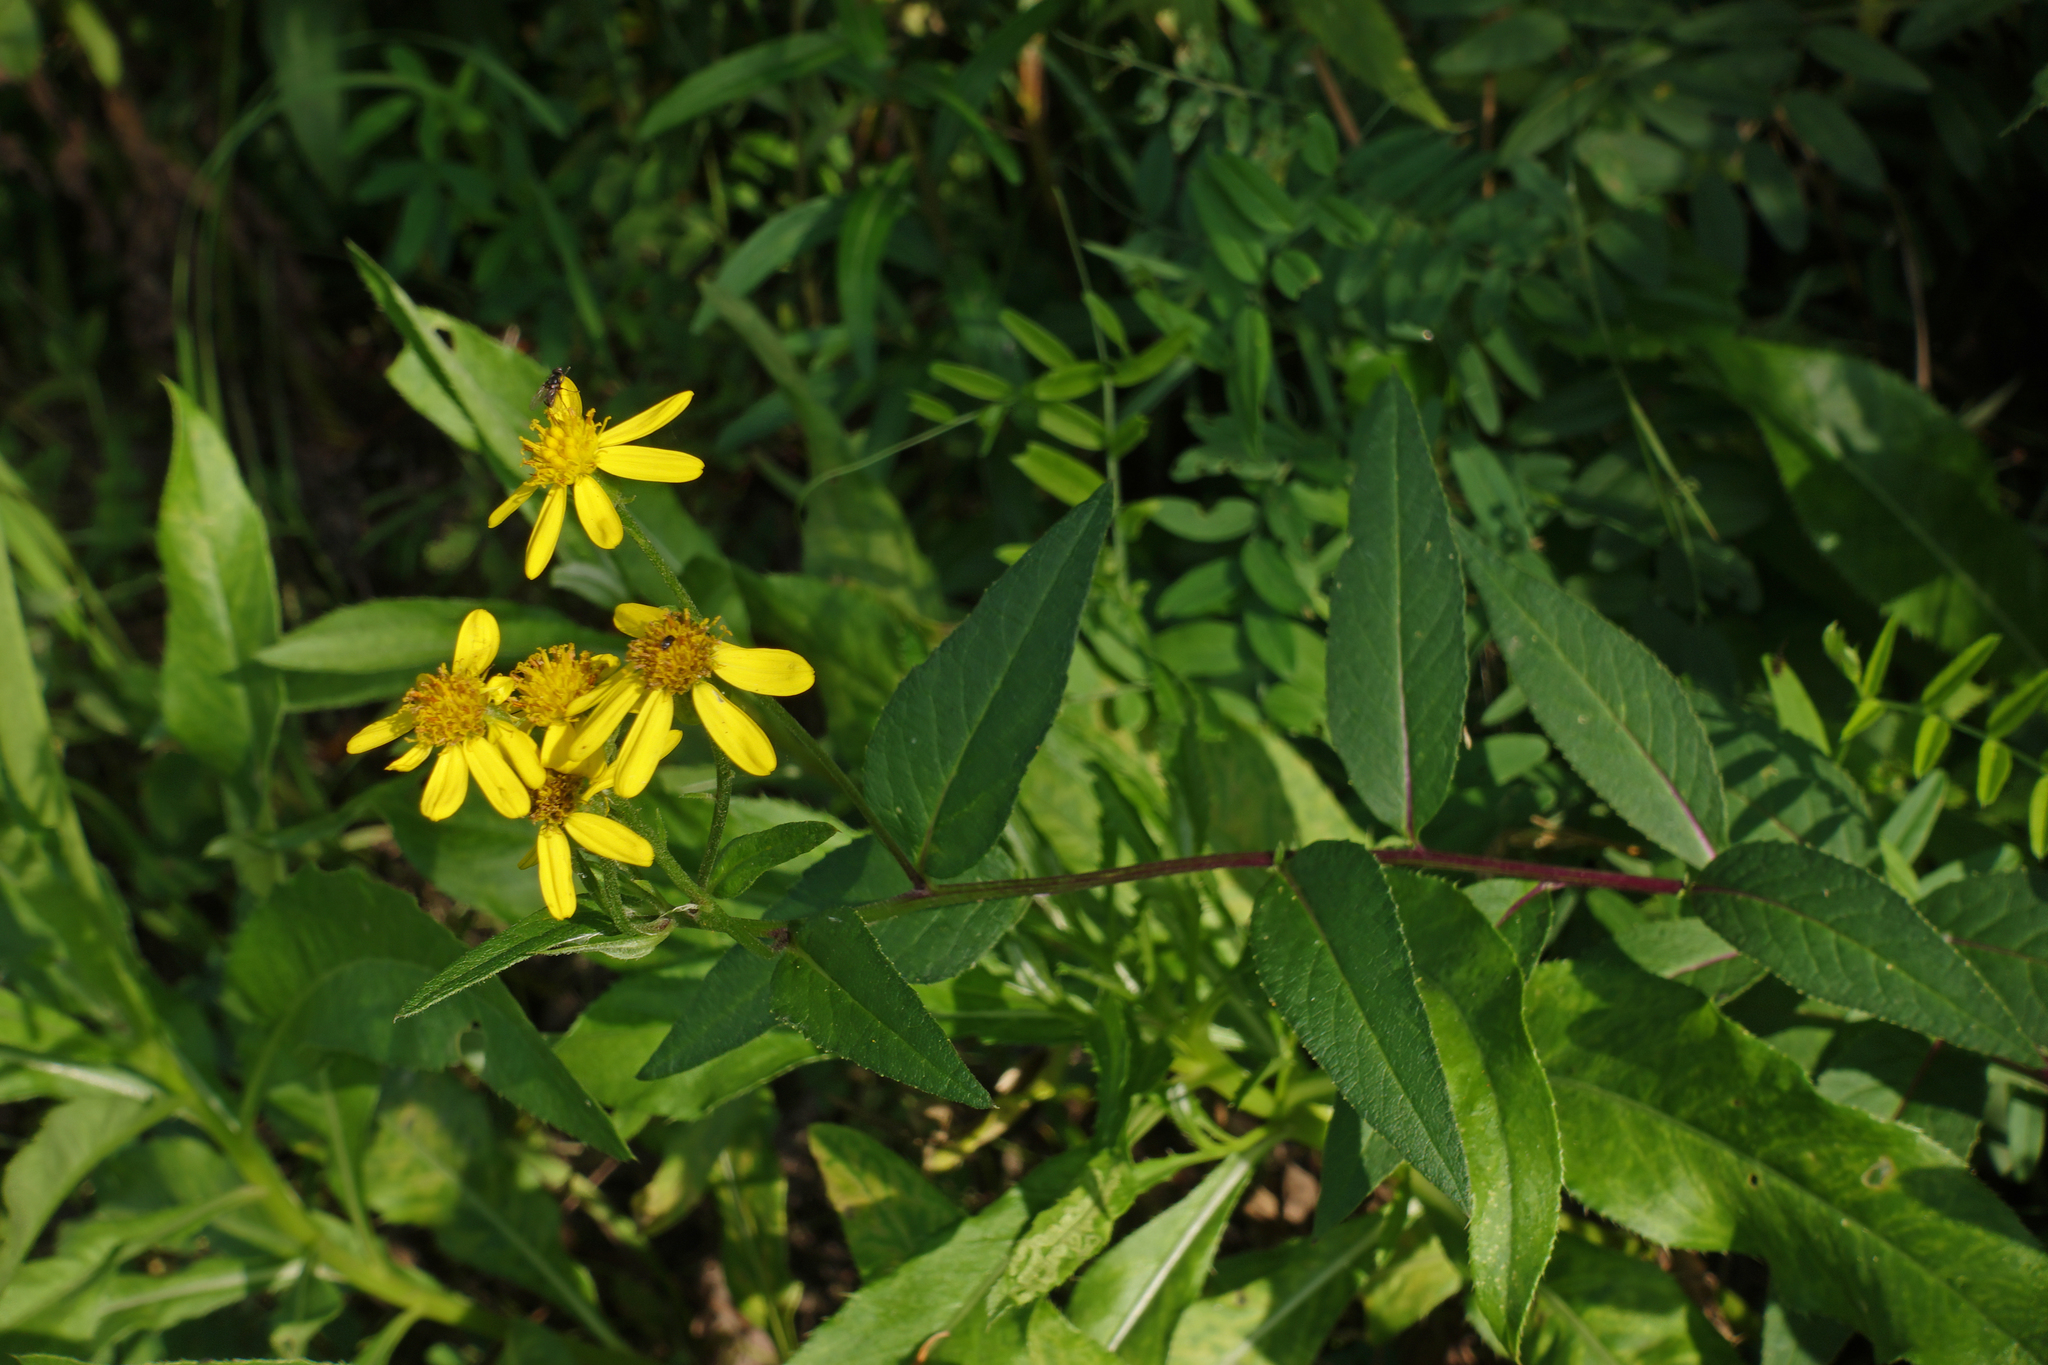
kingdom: Plantae
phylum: Tracheophyta
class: Magnoliopsida
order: Asterales
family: Asteraceae
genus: Senecio
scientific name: Senecio nemorensis
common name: Alpine ragwort
